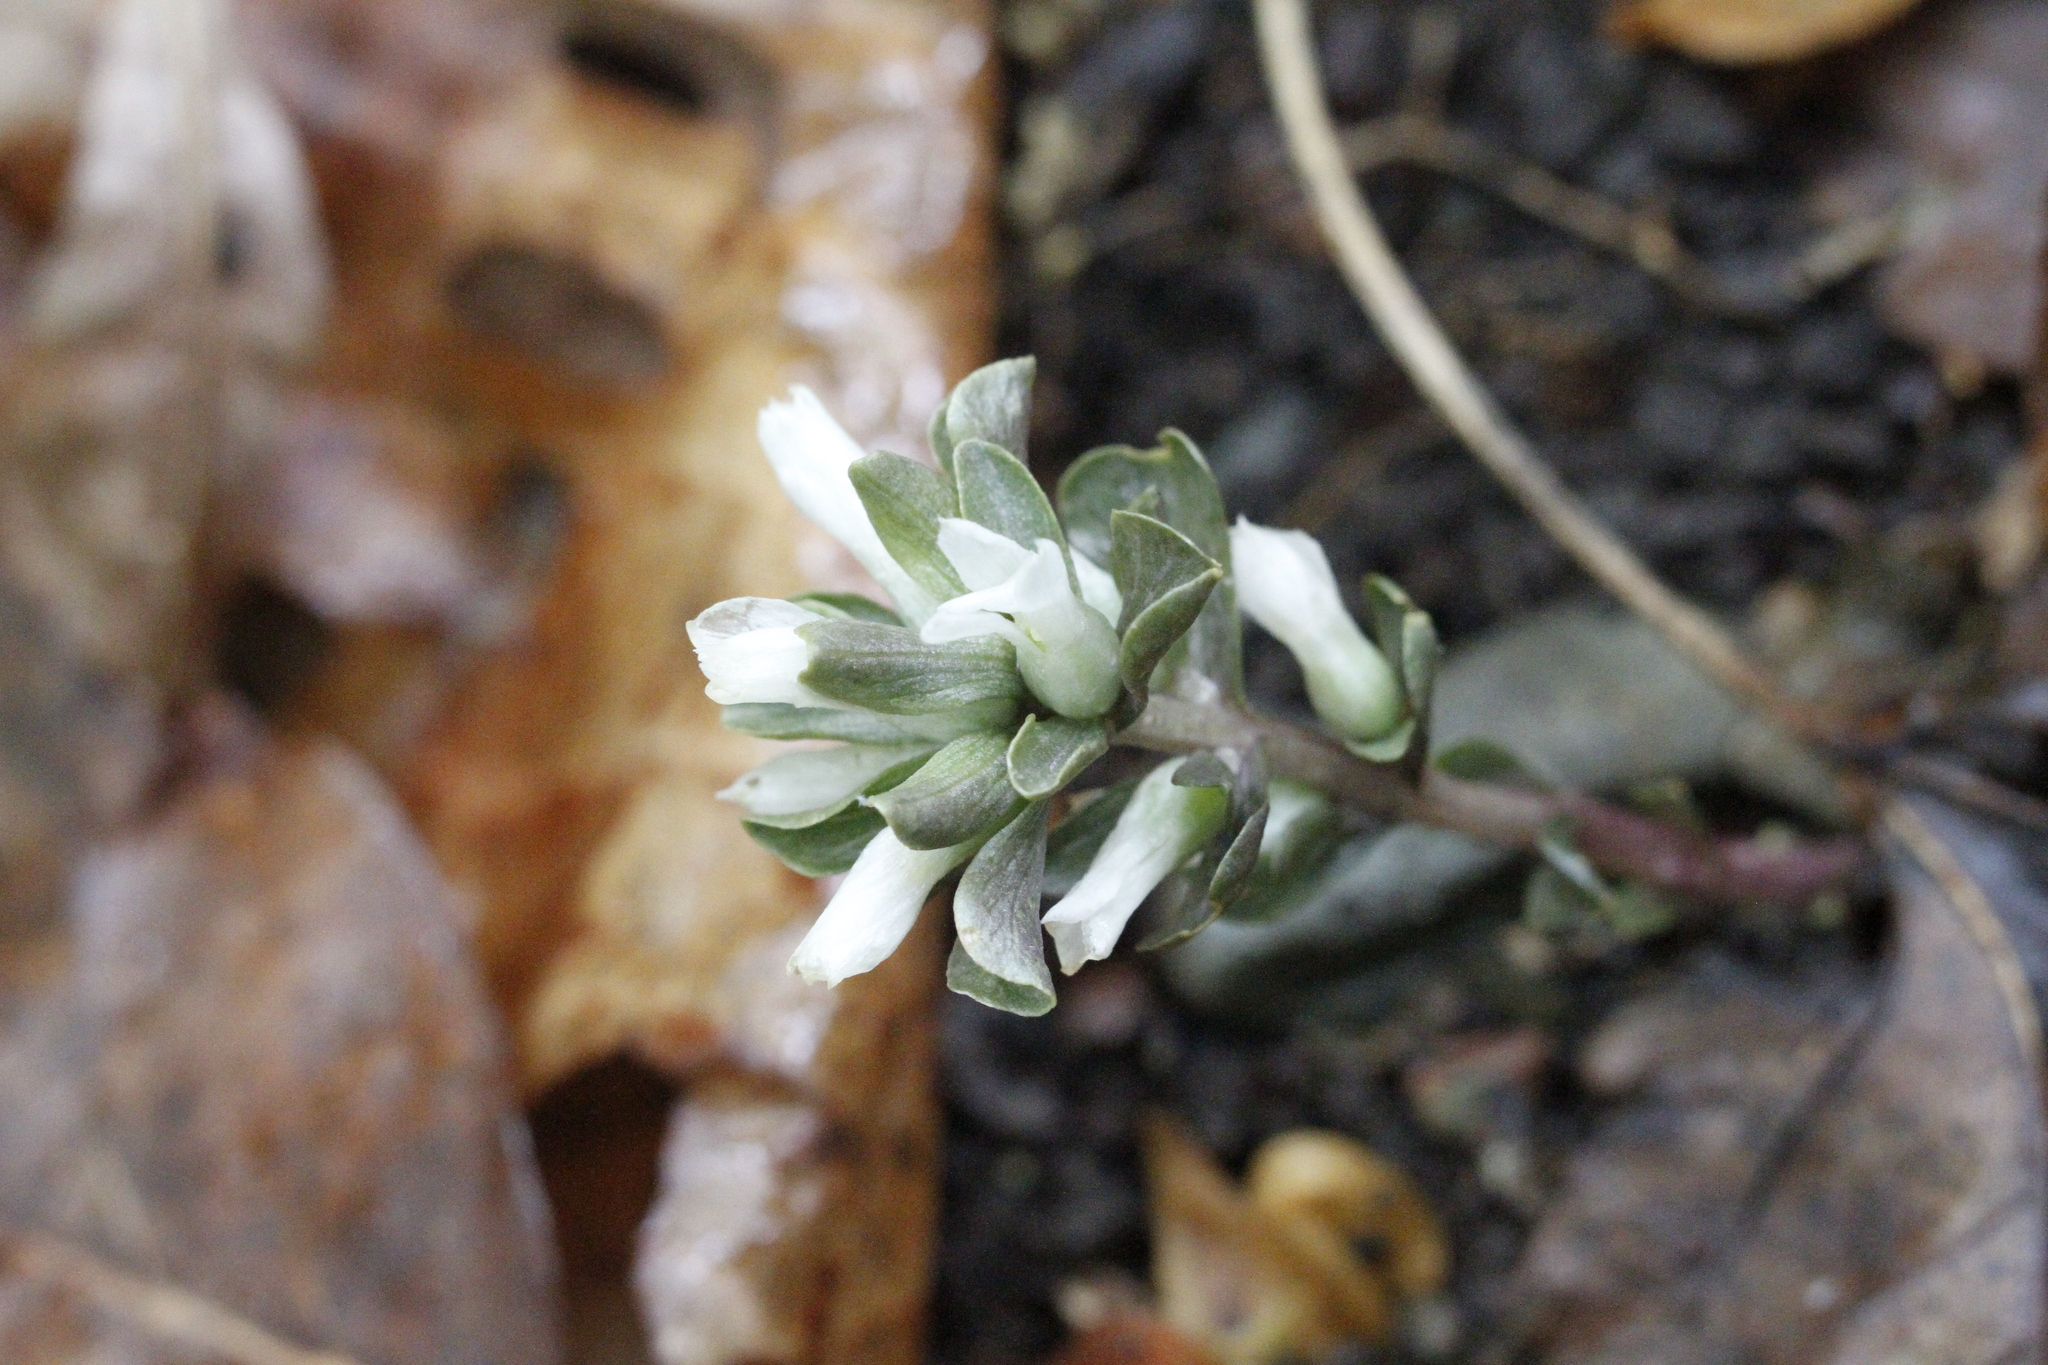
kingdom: Plantae
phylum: Tracheophyta
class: Magnoliopsida
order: Gentianales
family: Gentianaceae
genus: Obolaria
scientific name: Obolaria virginica
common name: Pennywort
